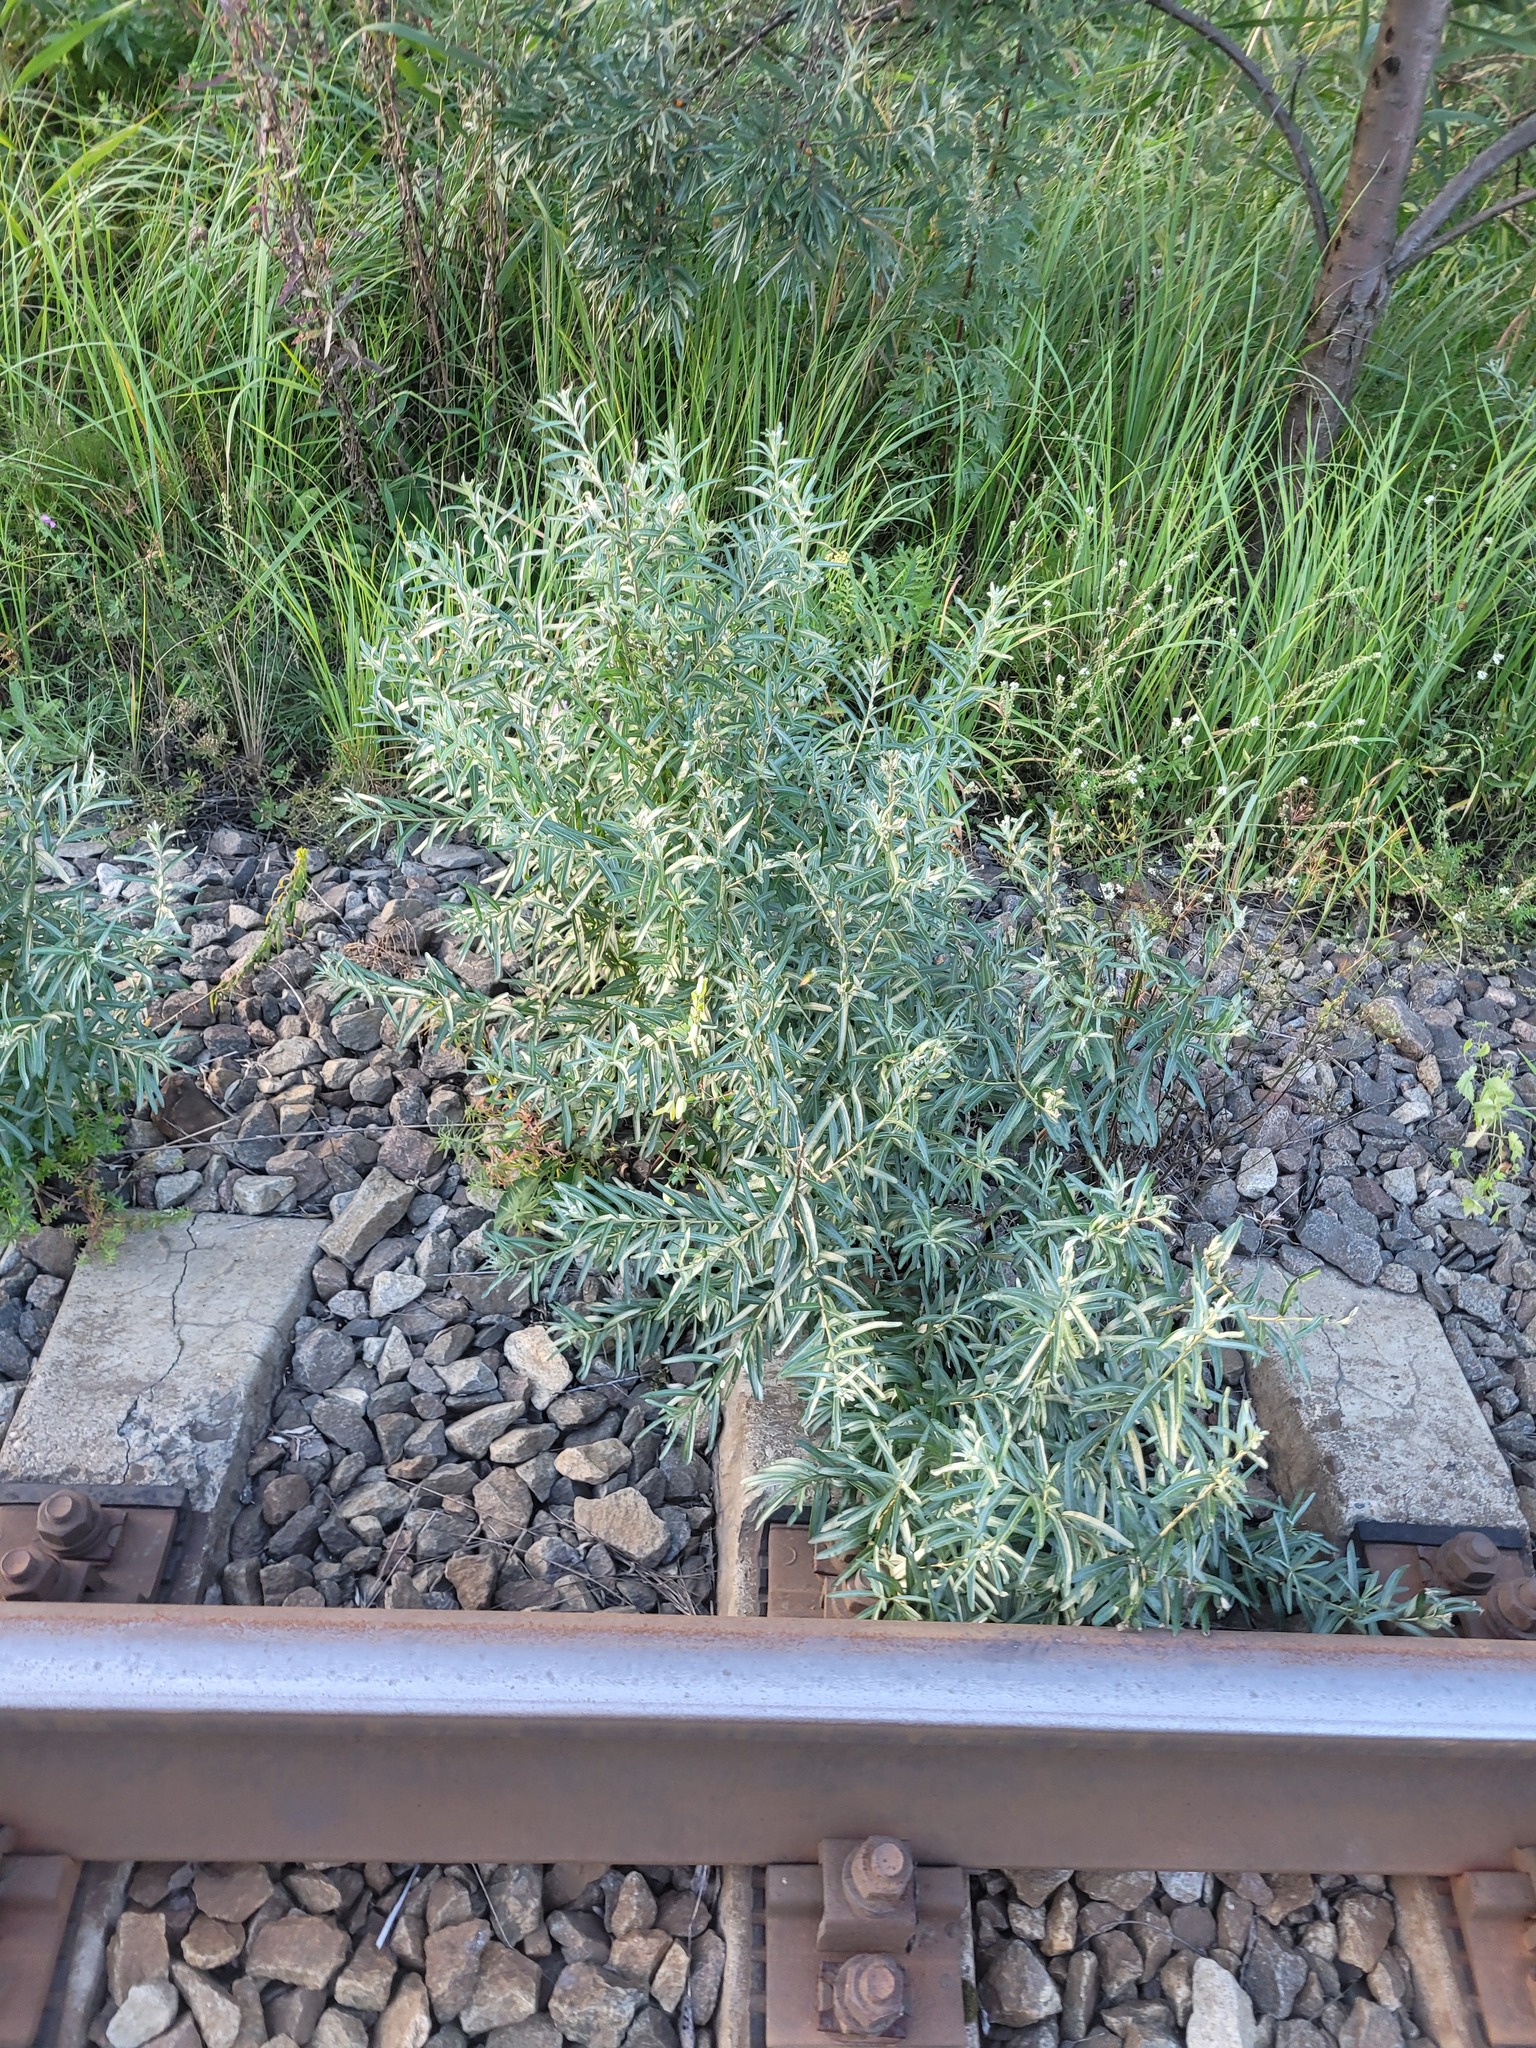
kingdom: Plantae
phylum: Tracheophyta
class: Magnoliopsida
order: Rosales
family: Elaeagnaceae
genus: Hippophae
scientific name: Hippophae rhamnoides
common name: Sea-buckthorn
